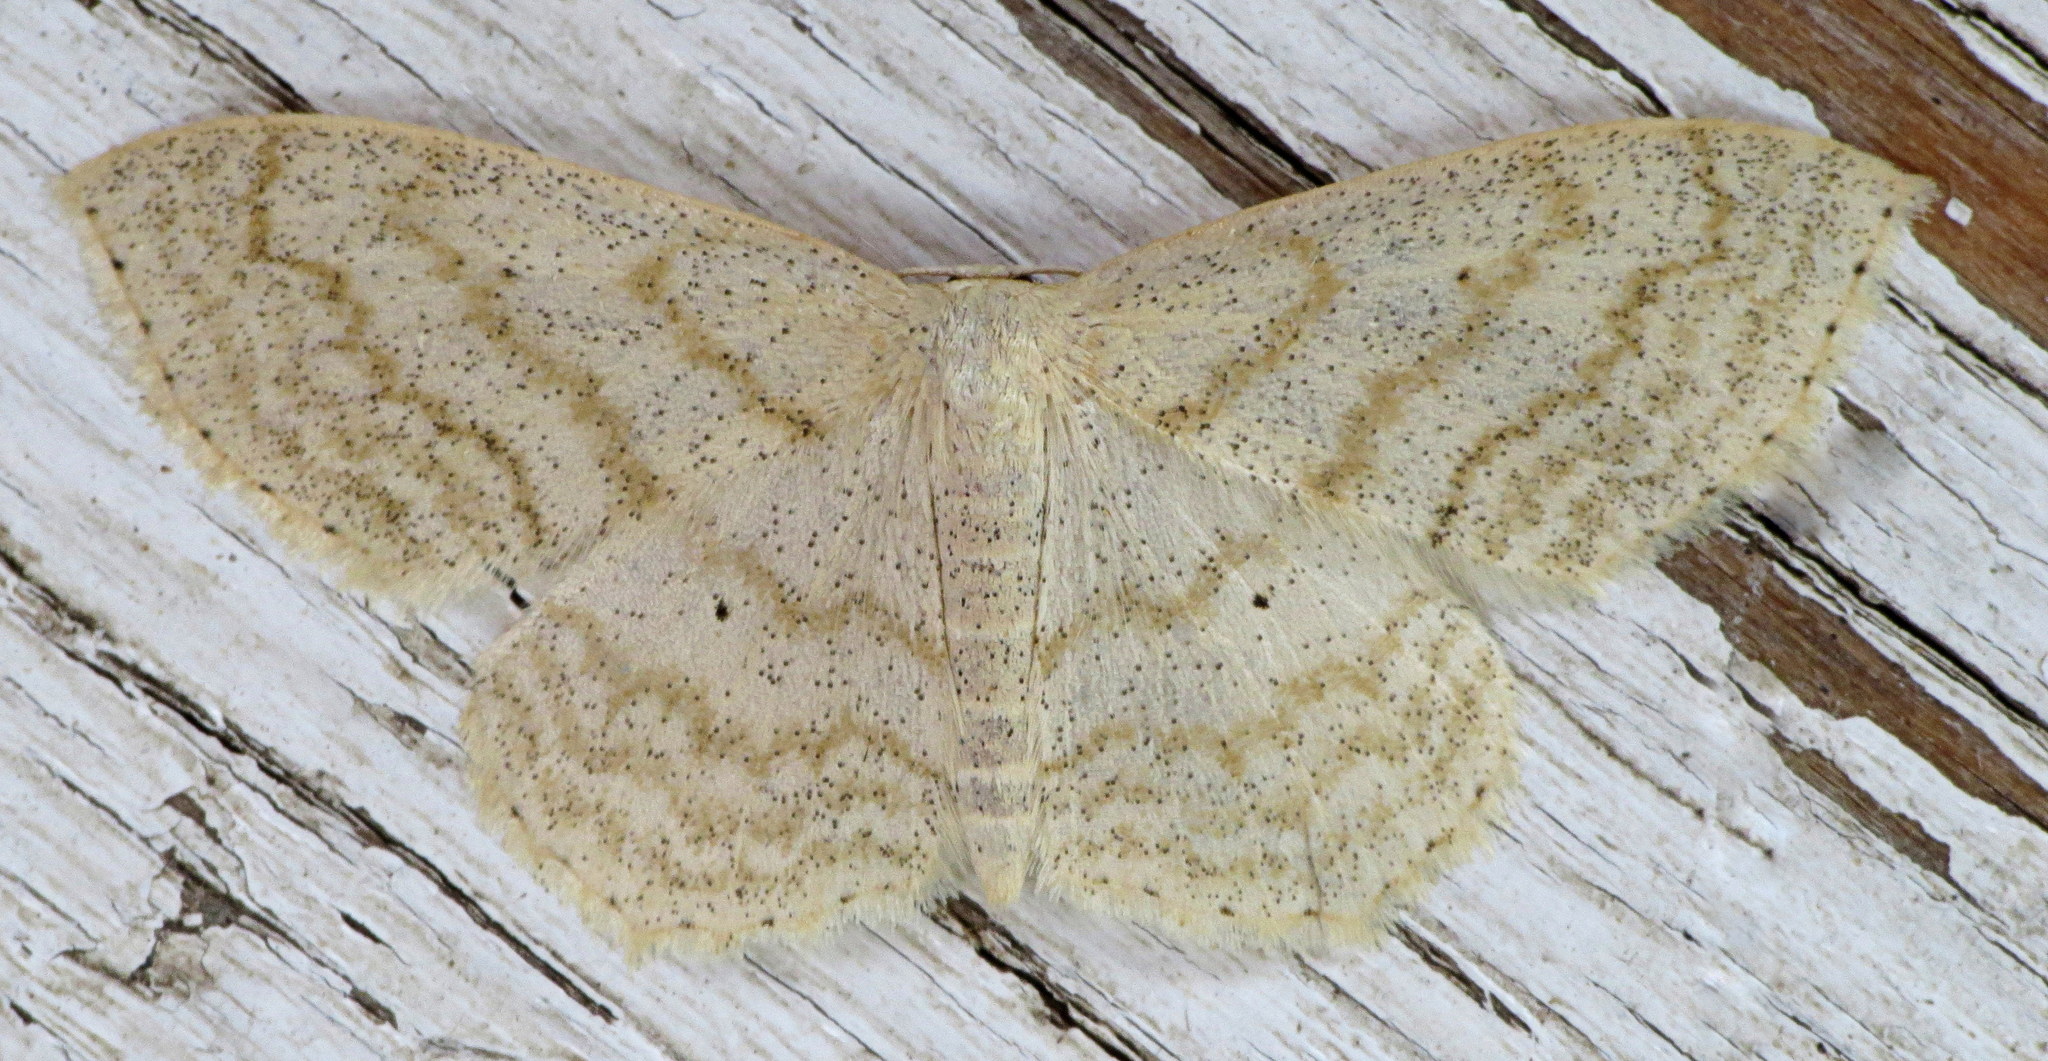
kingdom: Animalia
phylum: Arthropoda
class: Insecta
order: Lepidoptera
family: Geometridae
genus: Scopula
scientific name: Scopula limboundata
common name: Large lace border
